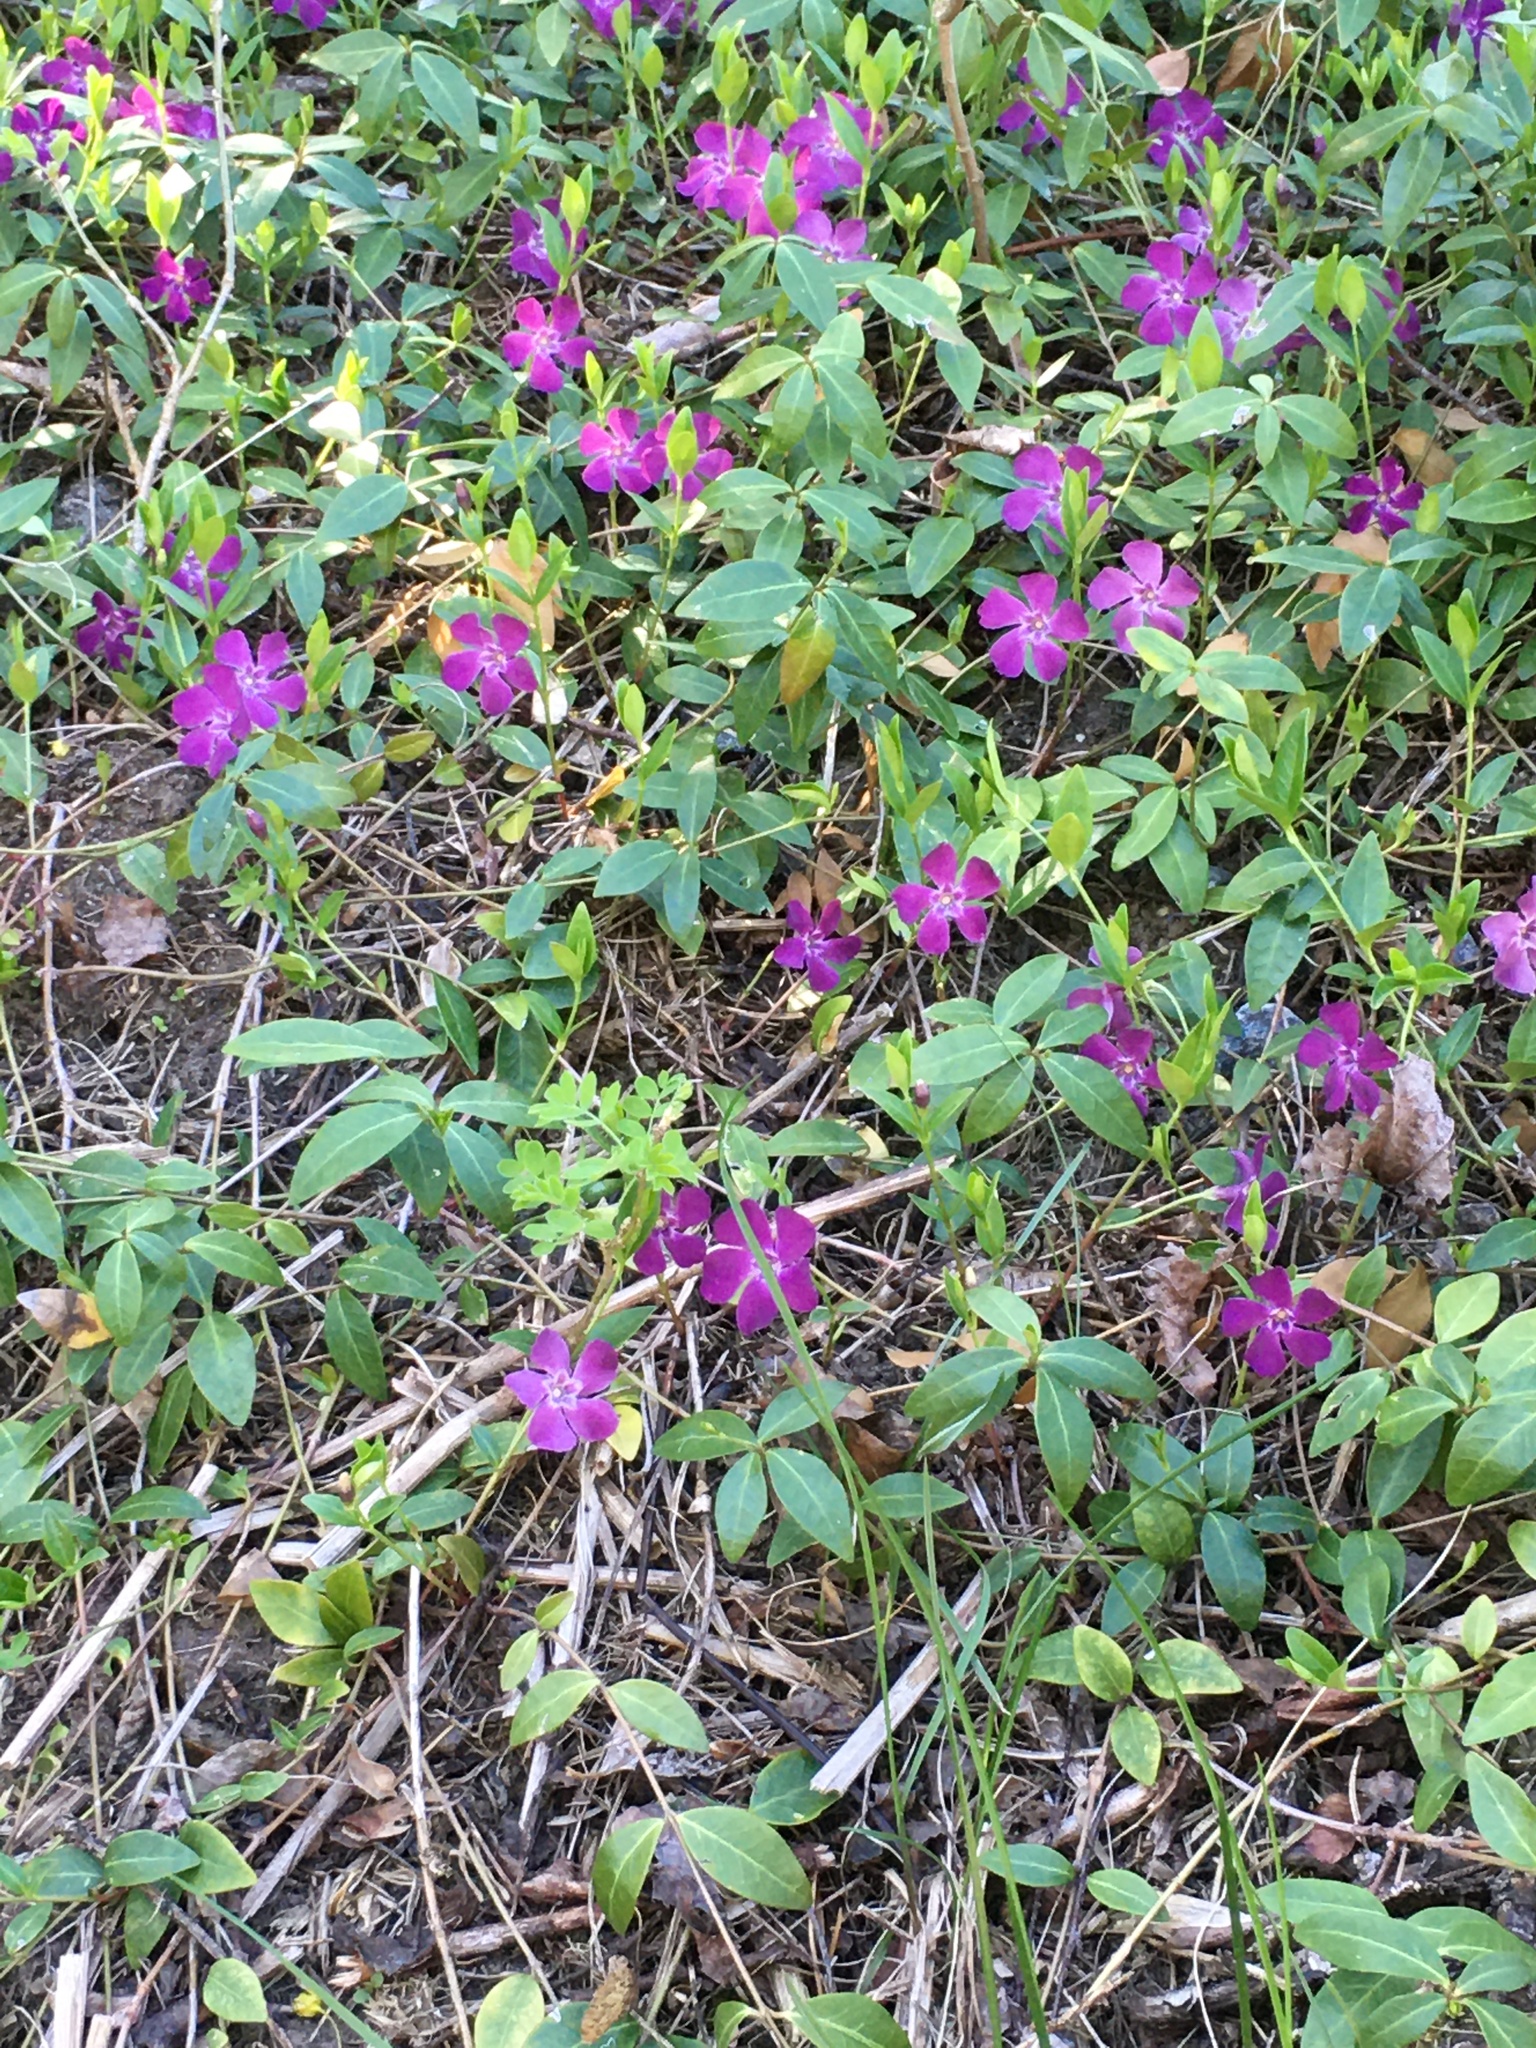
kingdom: Plantae
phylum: Tracheophyta
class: Magnoliopsida
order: Gentianales
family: Apocynaceae
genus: Vinca
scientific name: Vinca minor
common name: Lesser periwinkle
